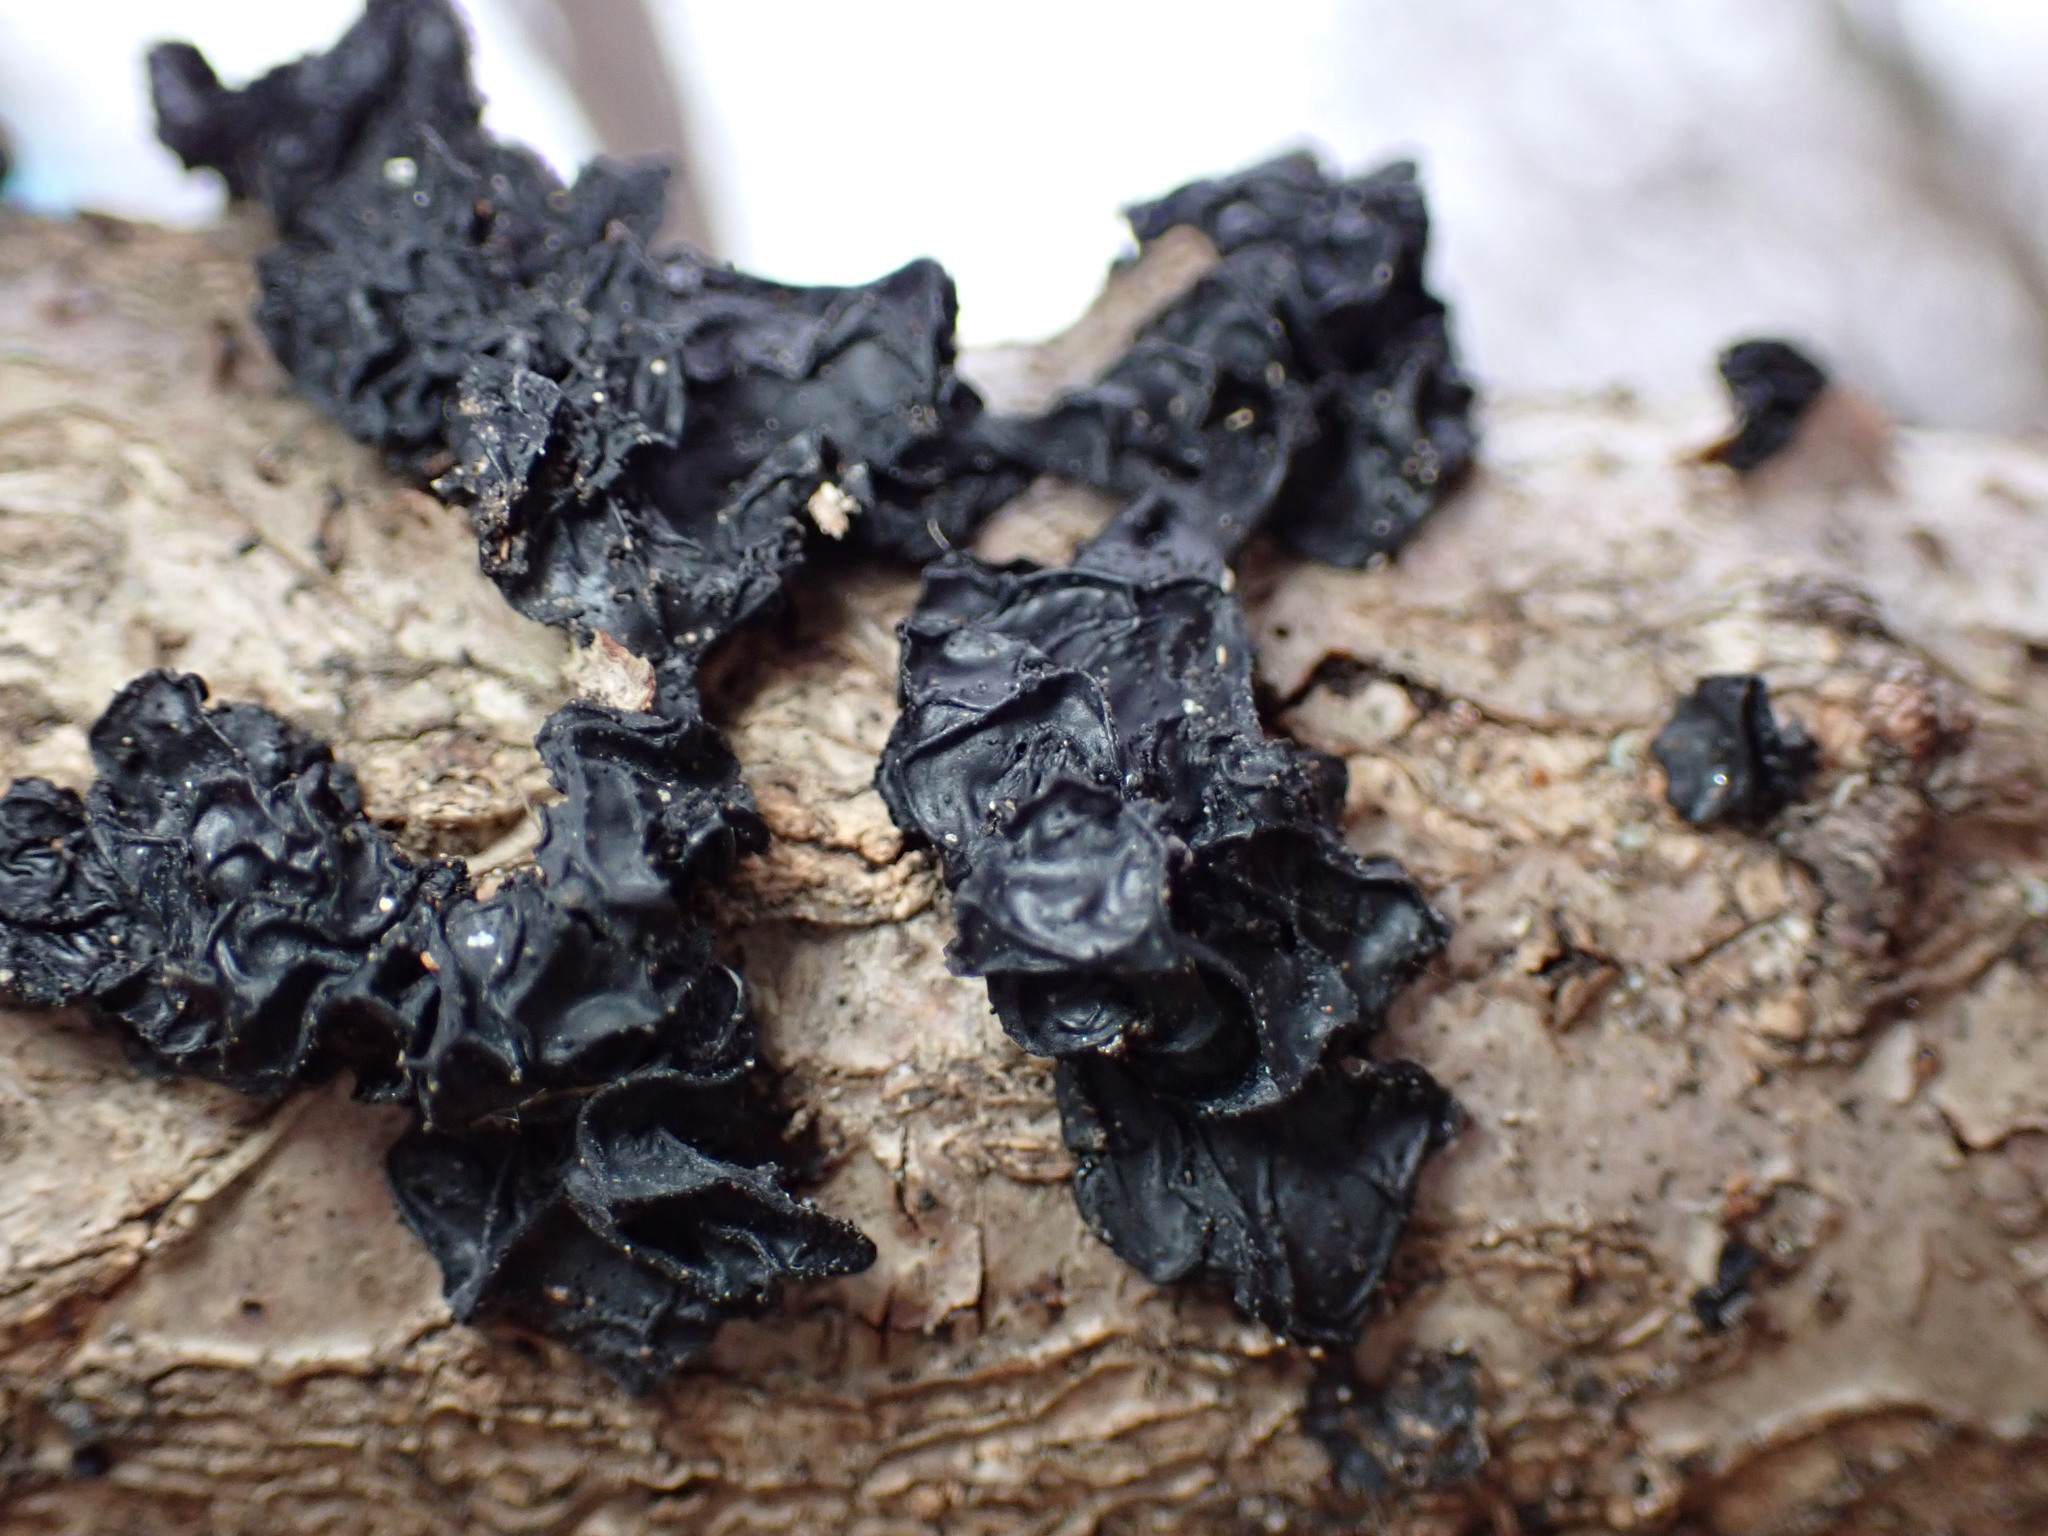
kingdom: Fungi
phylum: Basidiomycota
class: Agaricomycetes
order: Auriculariales
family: Auriculariaceae
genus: Exidia
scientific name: Exidia
